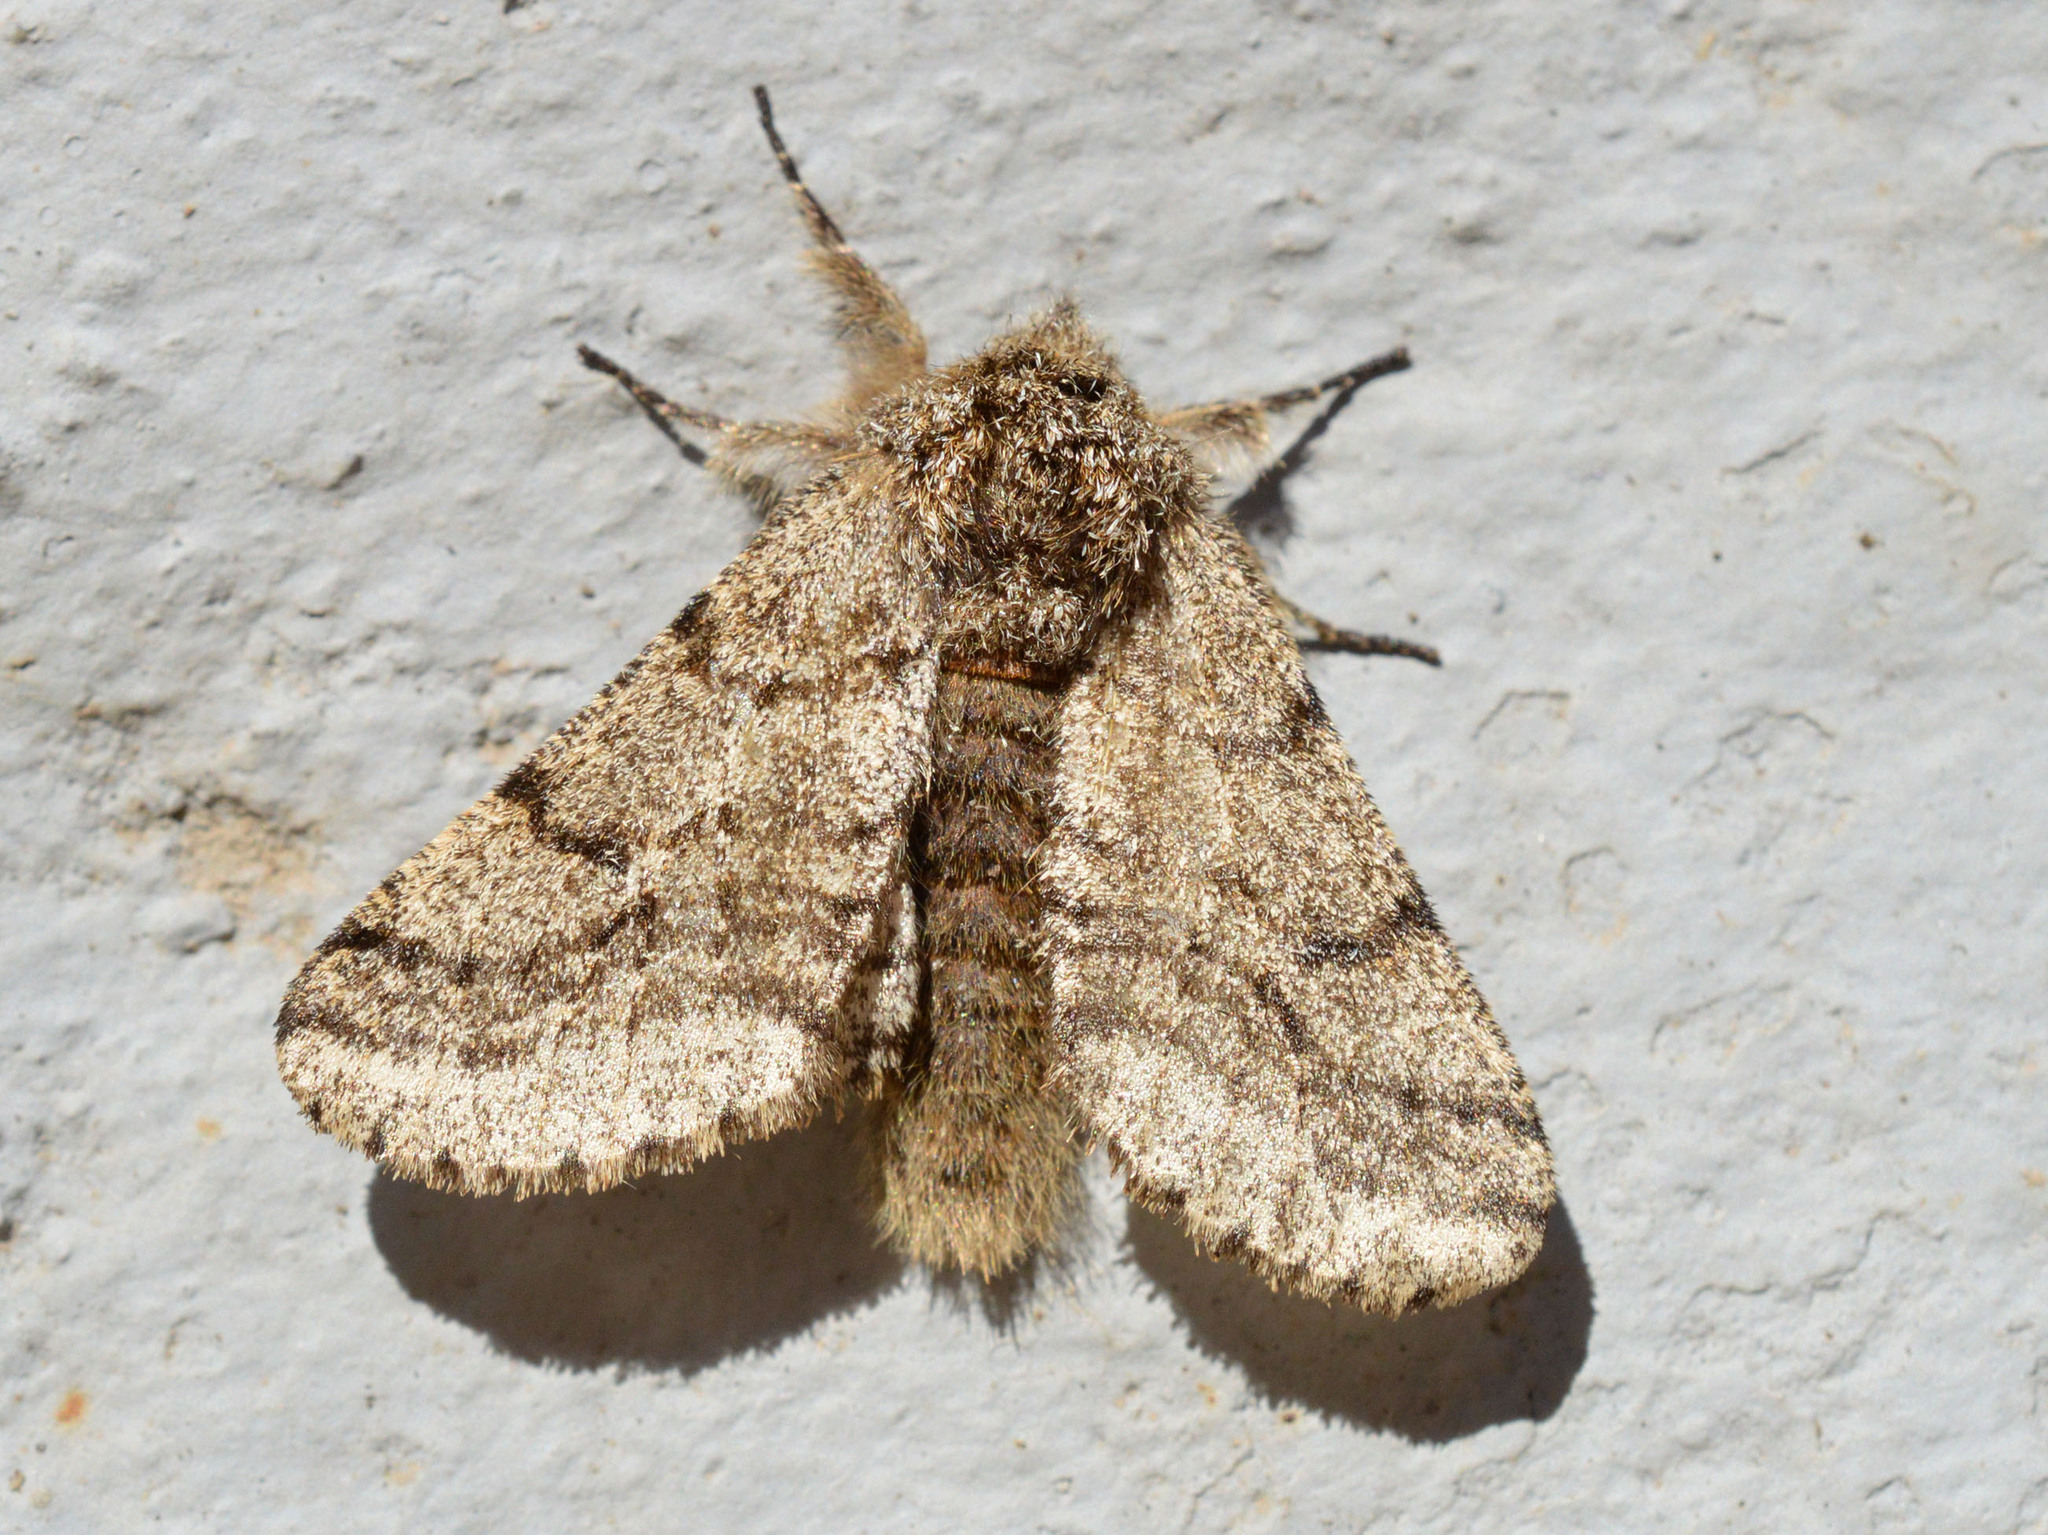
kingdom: Animalia
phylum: Arthropoda
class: Insecta
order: Lepidoptera
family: Geometridae
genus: Lycia
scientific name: Lycia hirtaria
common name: Brindled beauty
